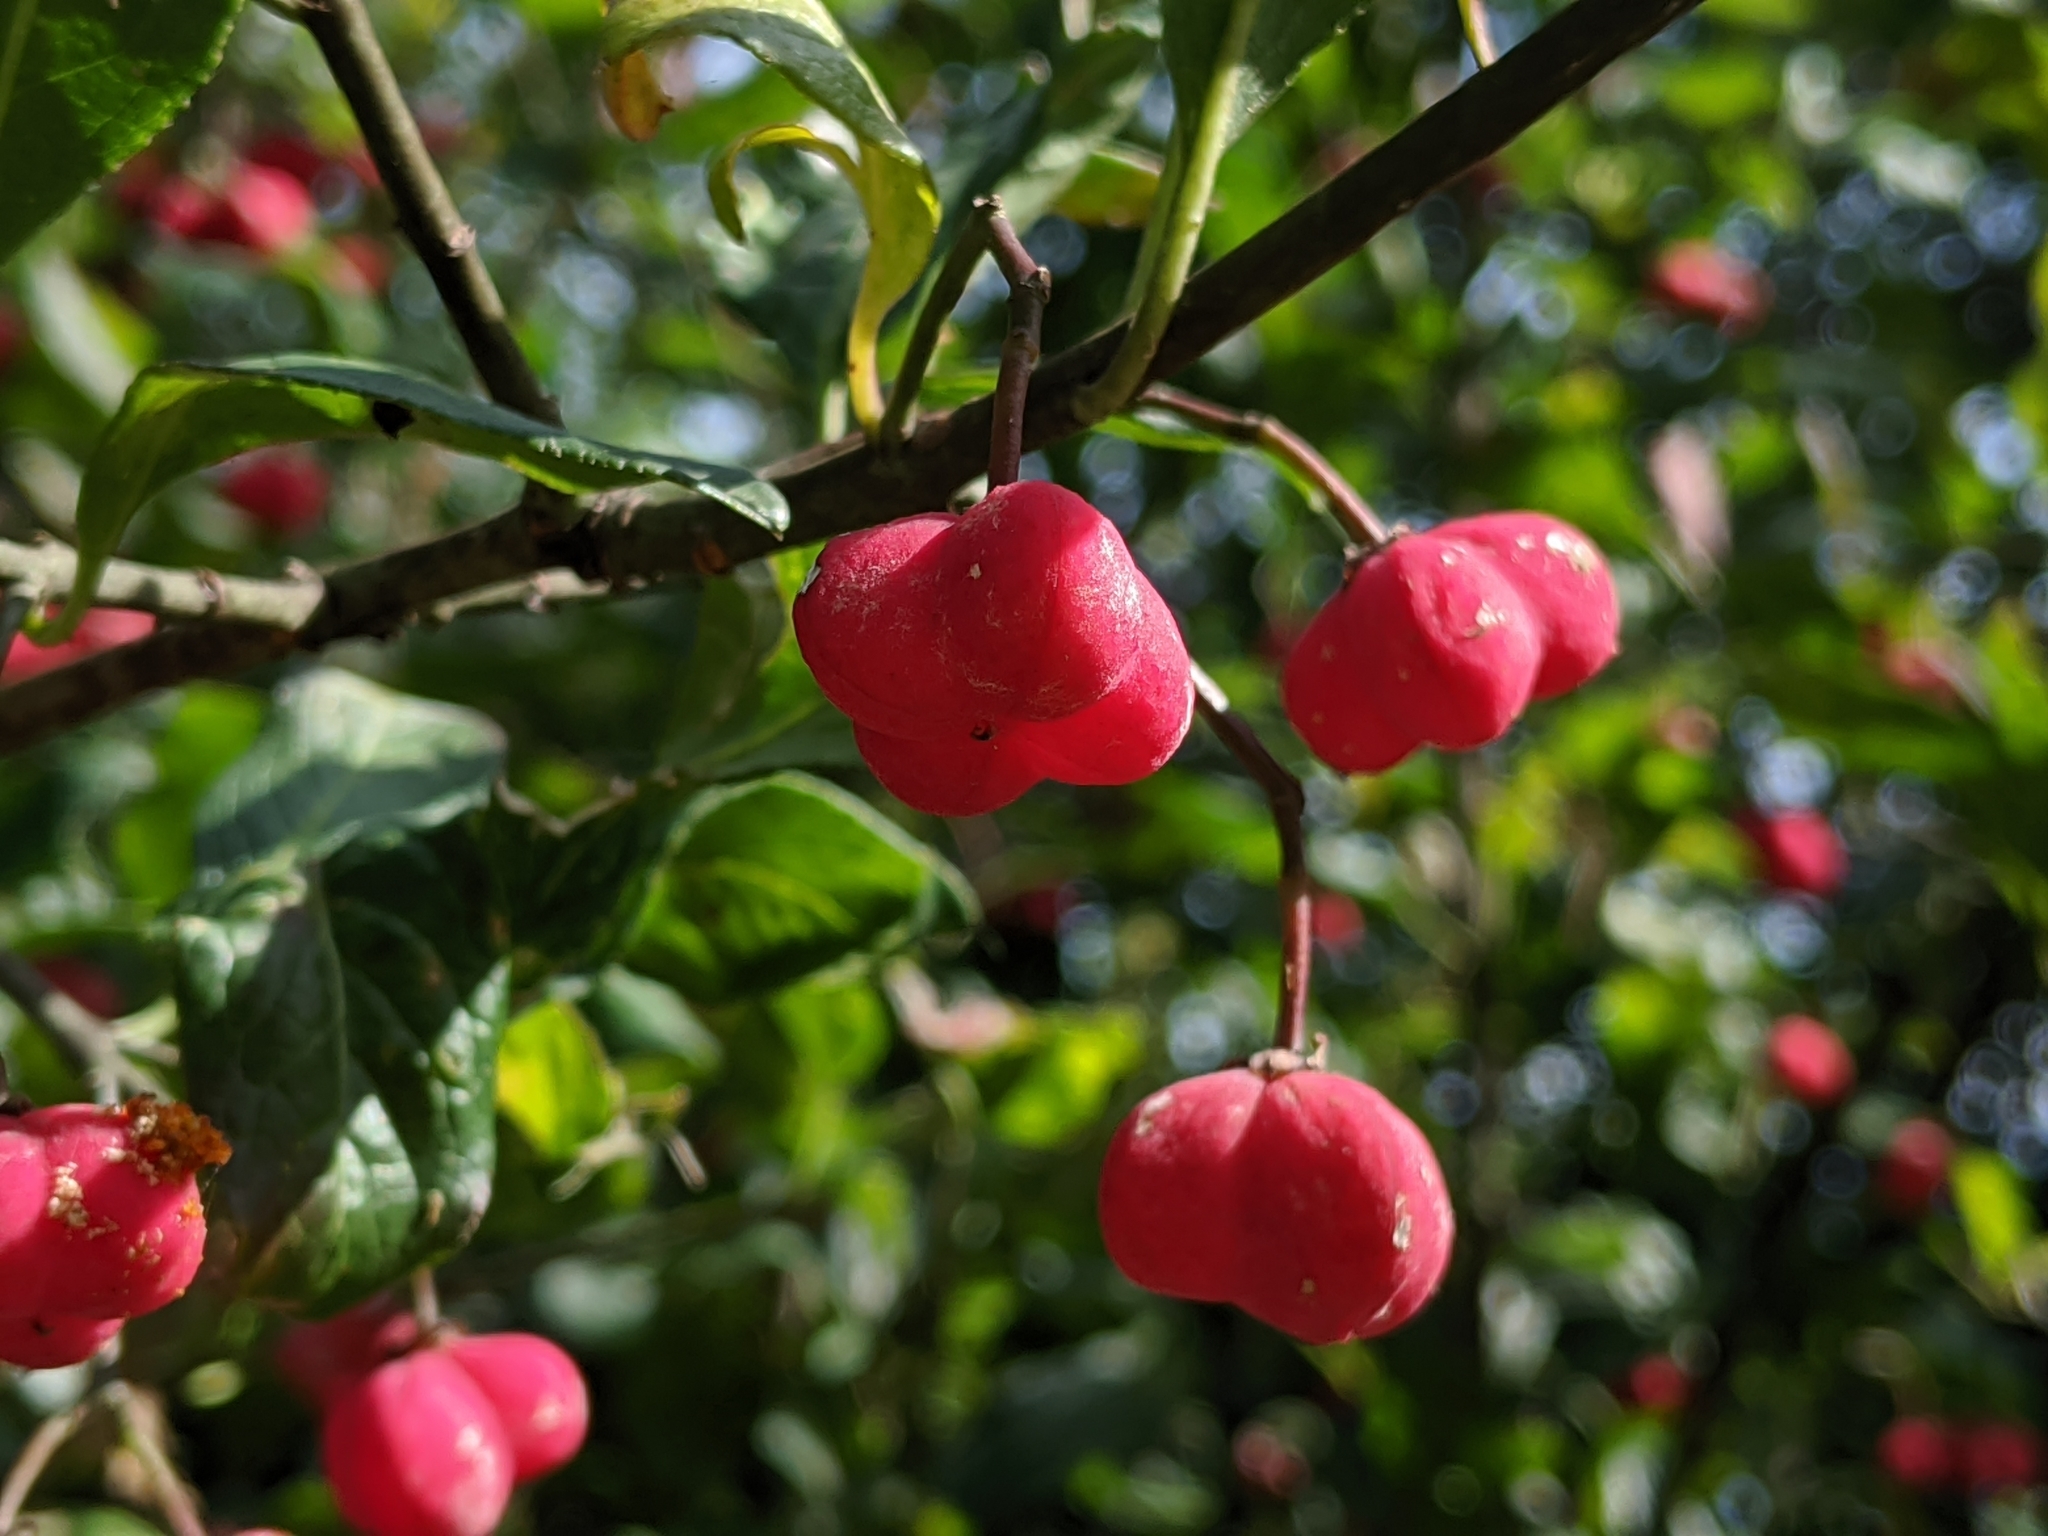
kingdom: Plantae
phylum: Tracheophyta
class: Magnoliopsida
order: Celastrales
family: Celastraceae
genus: Euonymus
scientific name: Euonymus europaeus
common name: Spindle
